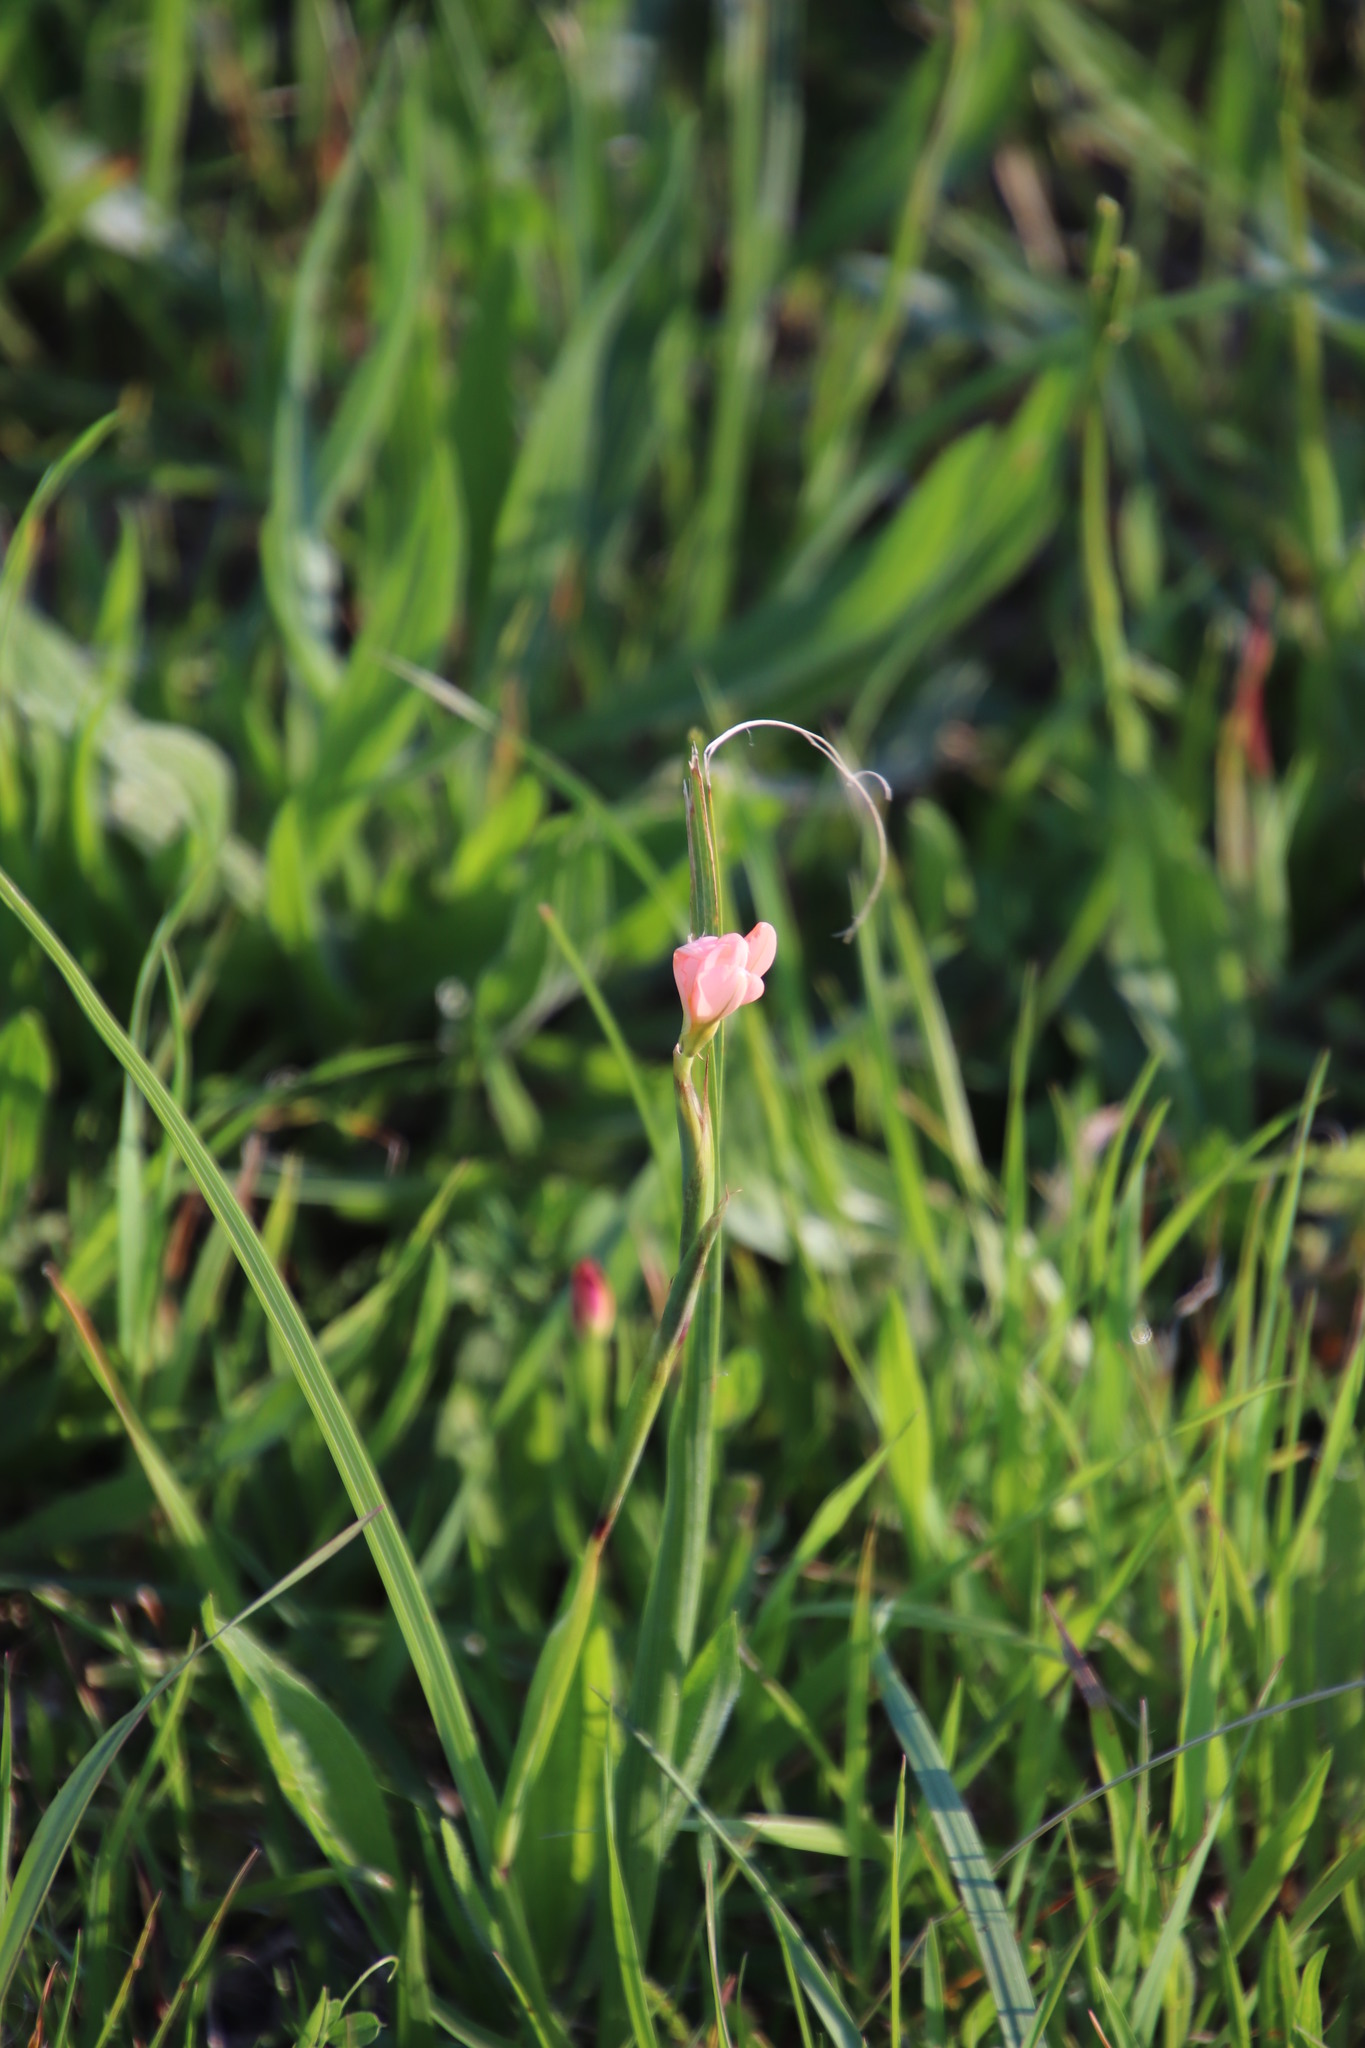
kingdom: Plantae
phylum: Tracheophyta
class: Liliopsida
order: Asparagales
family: Iridaceae
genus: Moraea
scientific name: Moraea miniata
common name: Two-leaf cape-tulip
